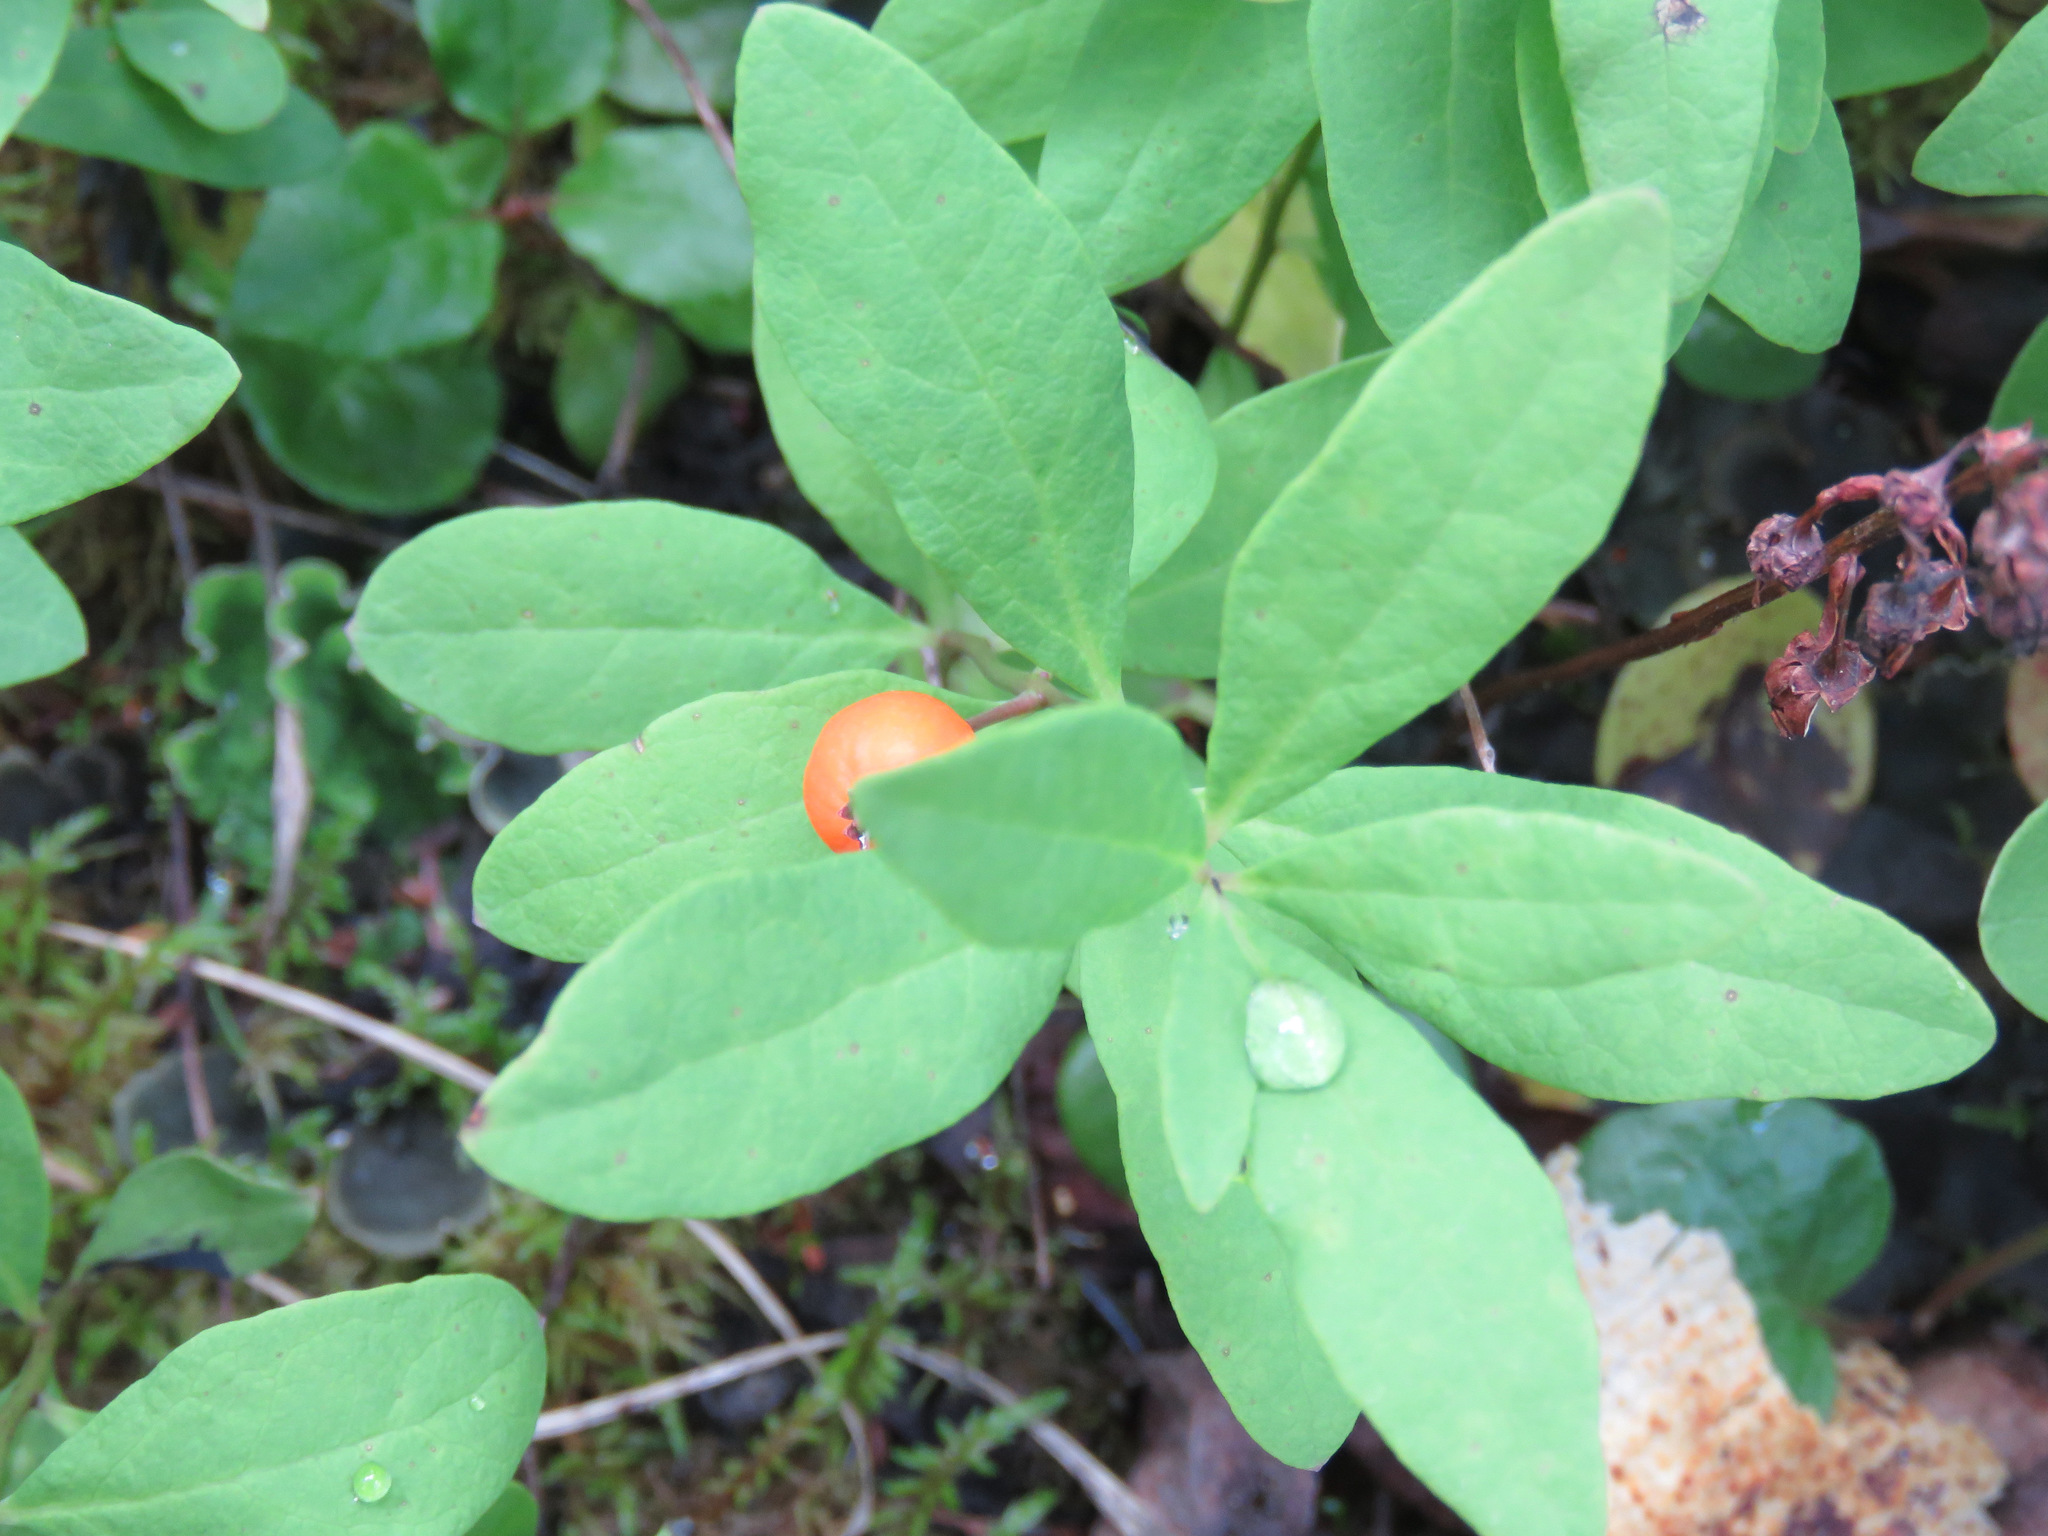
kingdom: Plantae
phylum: Tracheophyta
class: Magnoliopsida
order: Santalales
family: Comandraceae
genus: Geocaulon
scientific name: Geocaulon lividum
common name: Earthberry
